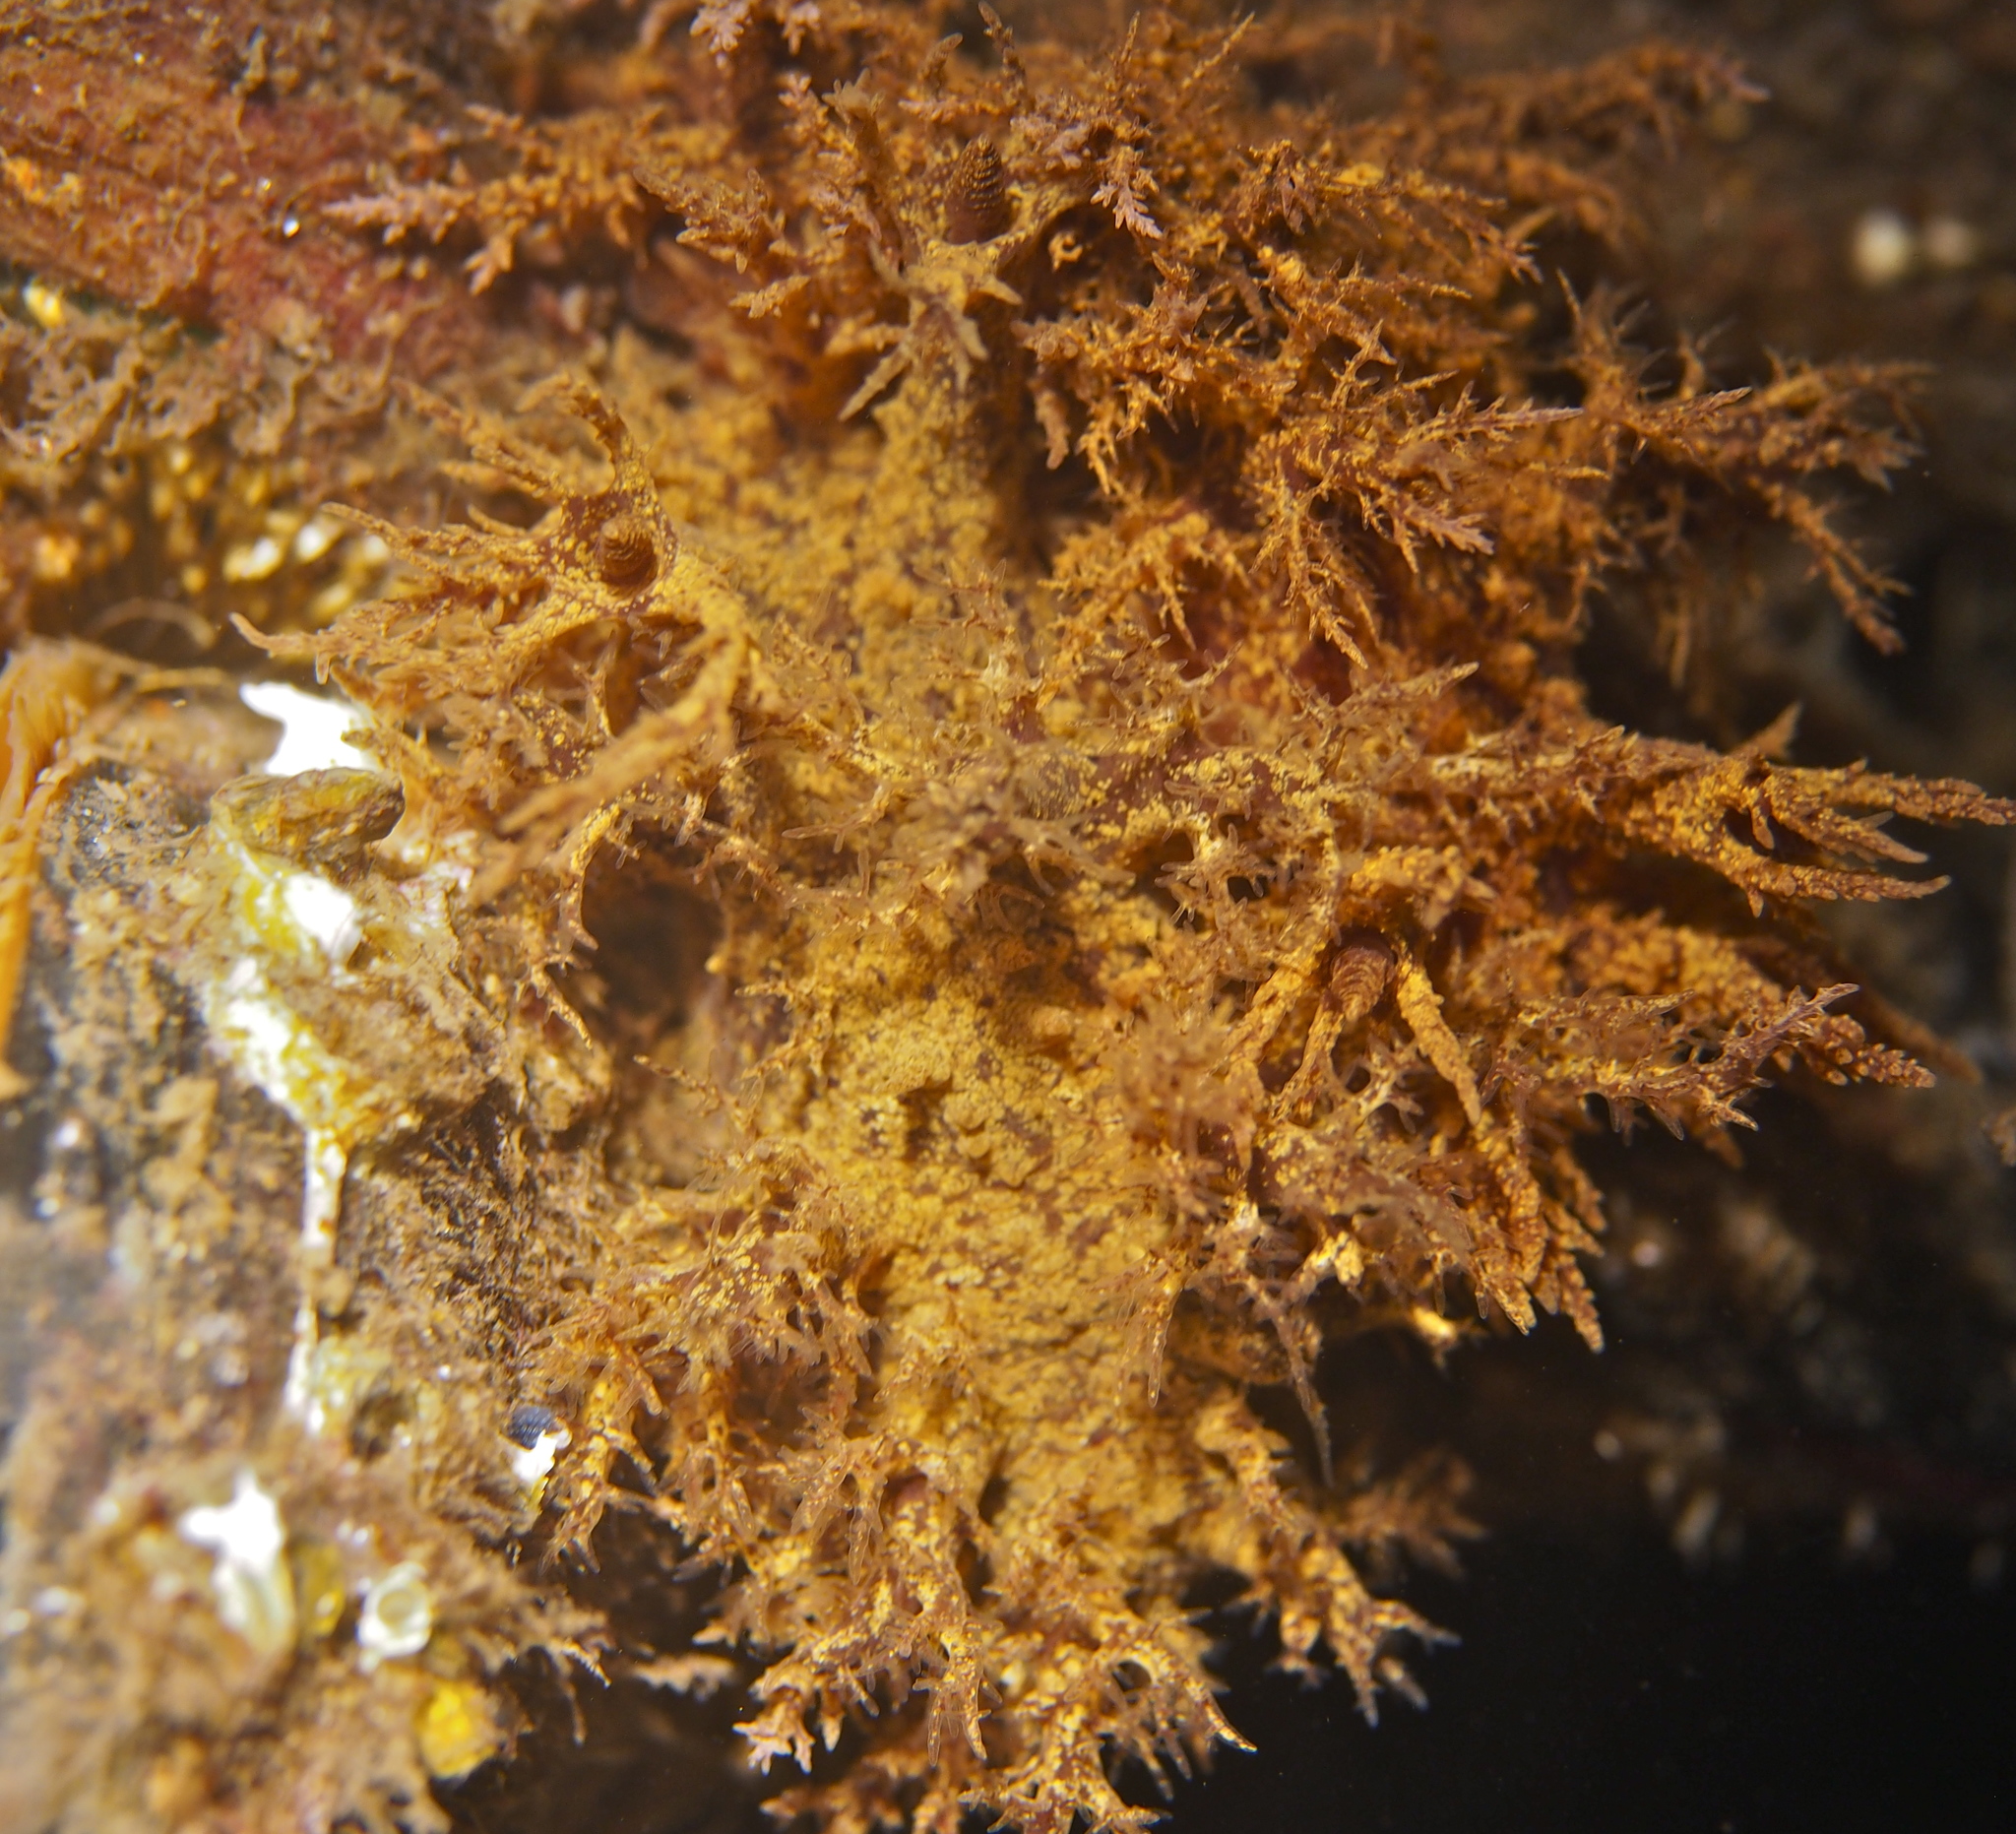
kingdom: Animalia
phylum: Mollusca
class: Gastropoda
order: Nudibranchia
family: Dendronotidae
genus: Dendronotus
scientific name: Dendronotus europaeus
